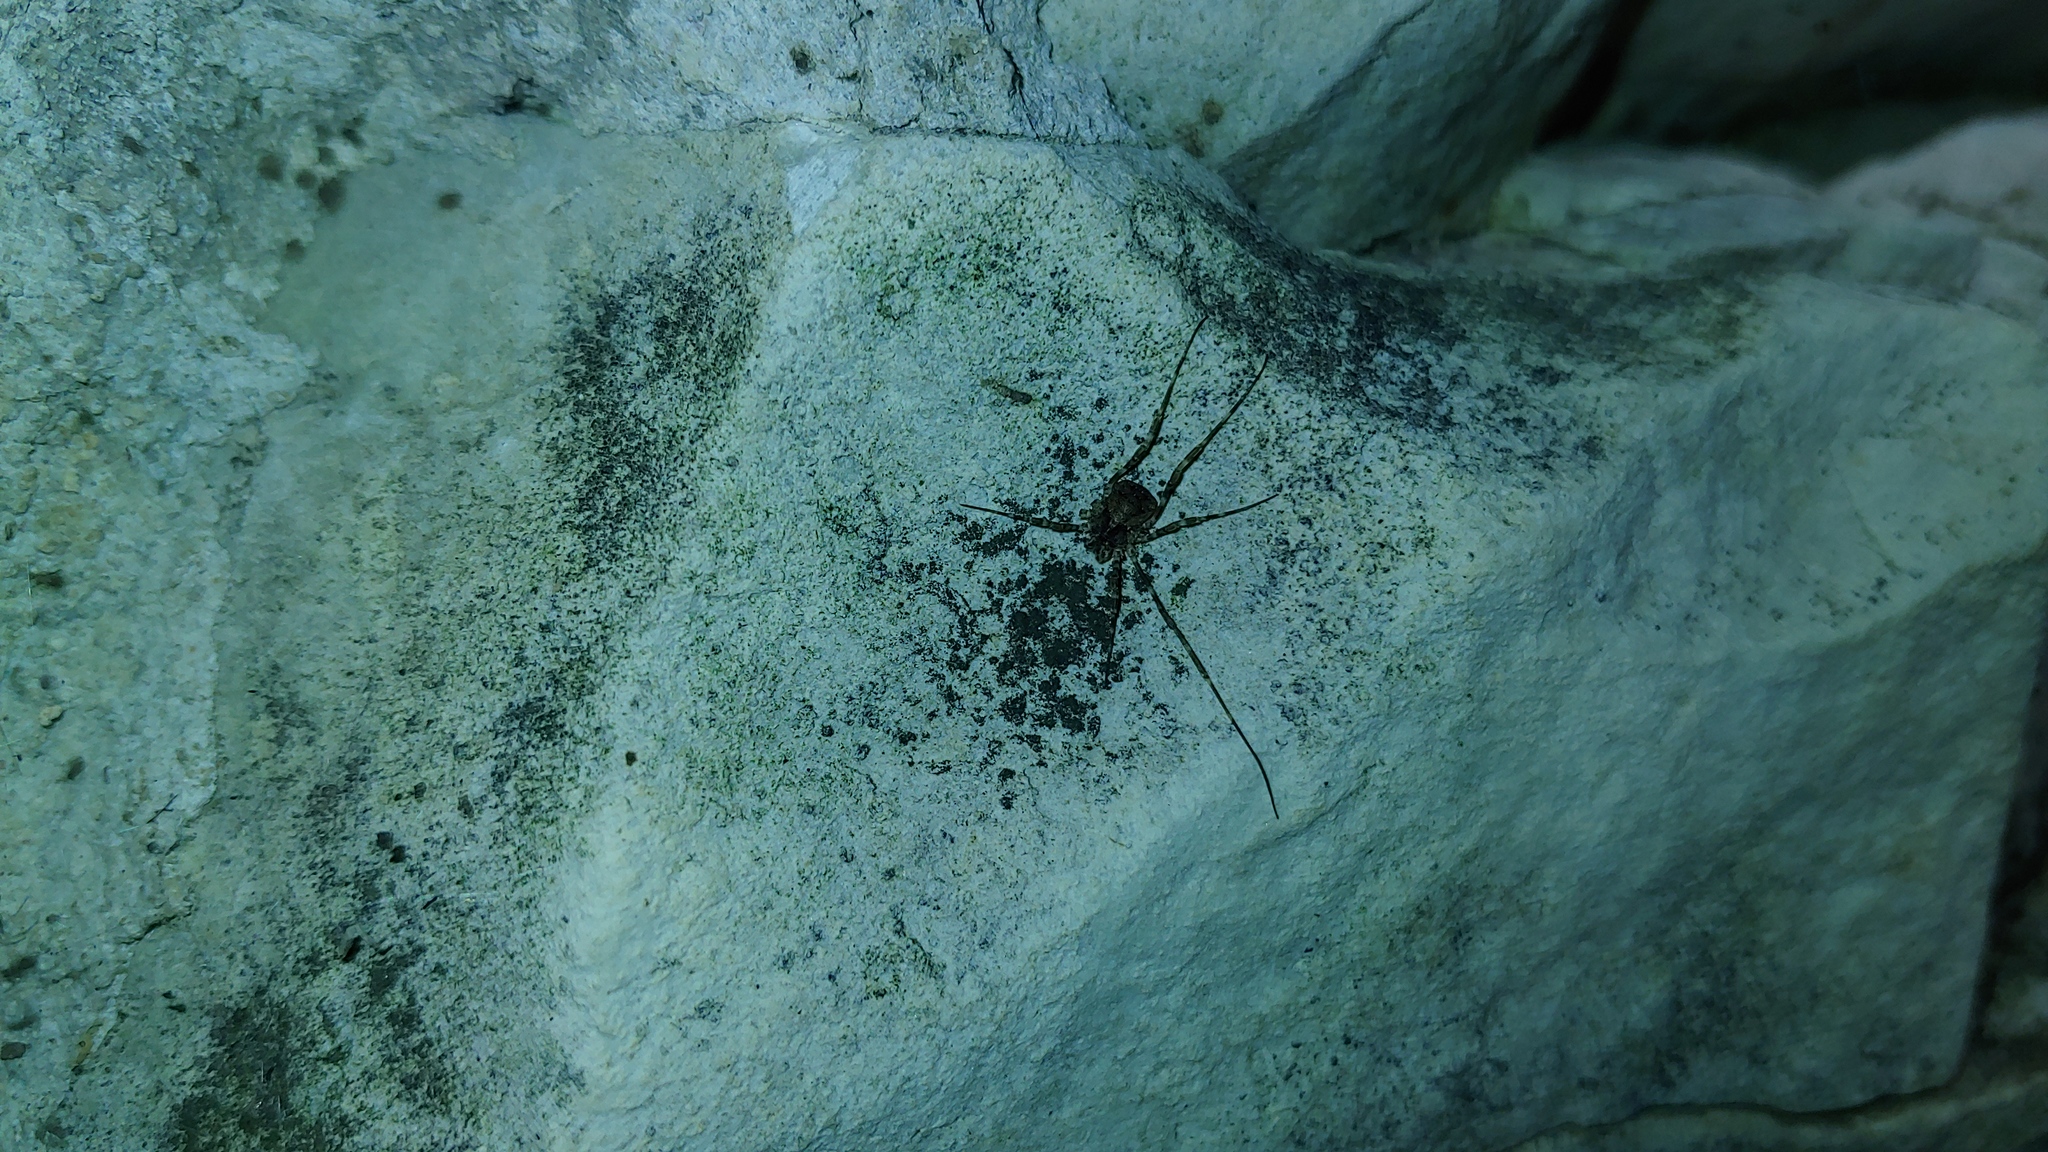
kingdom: Animalia
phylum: Arthropoda
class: Arachnida
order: Opiliones
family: Phalangiidae
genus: Odiellus
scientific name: Odiellus pictus
